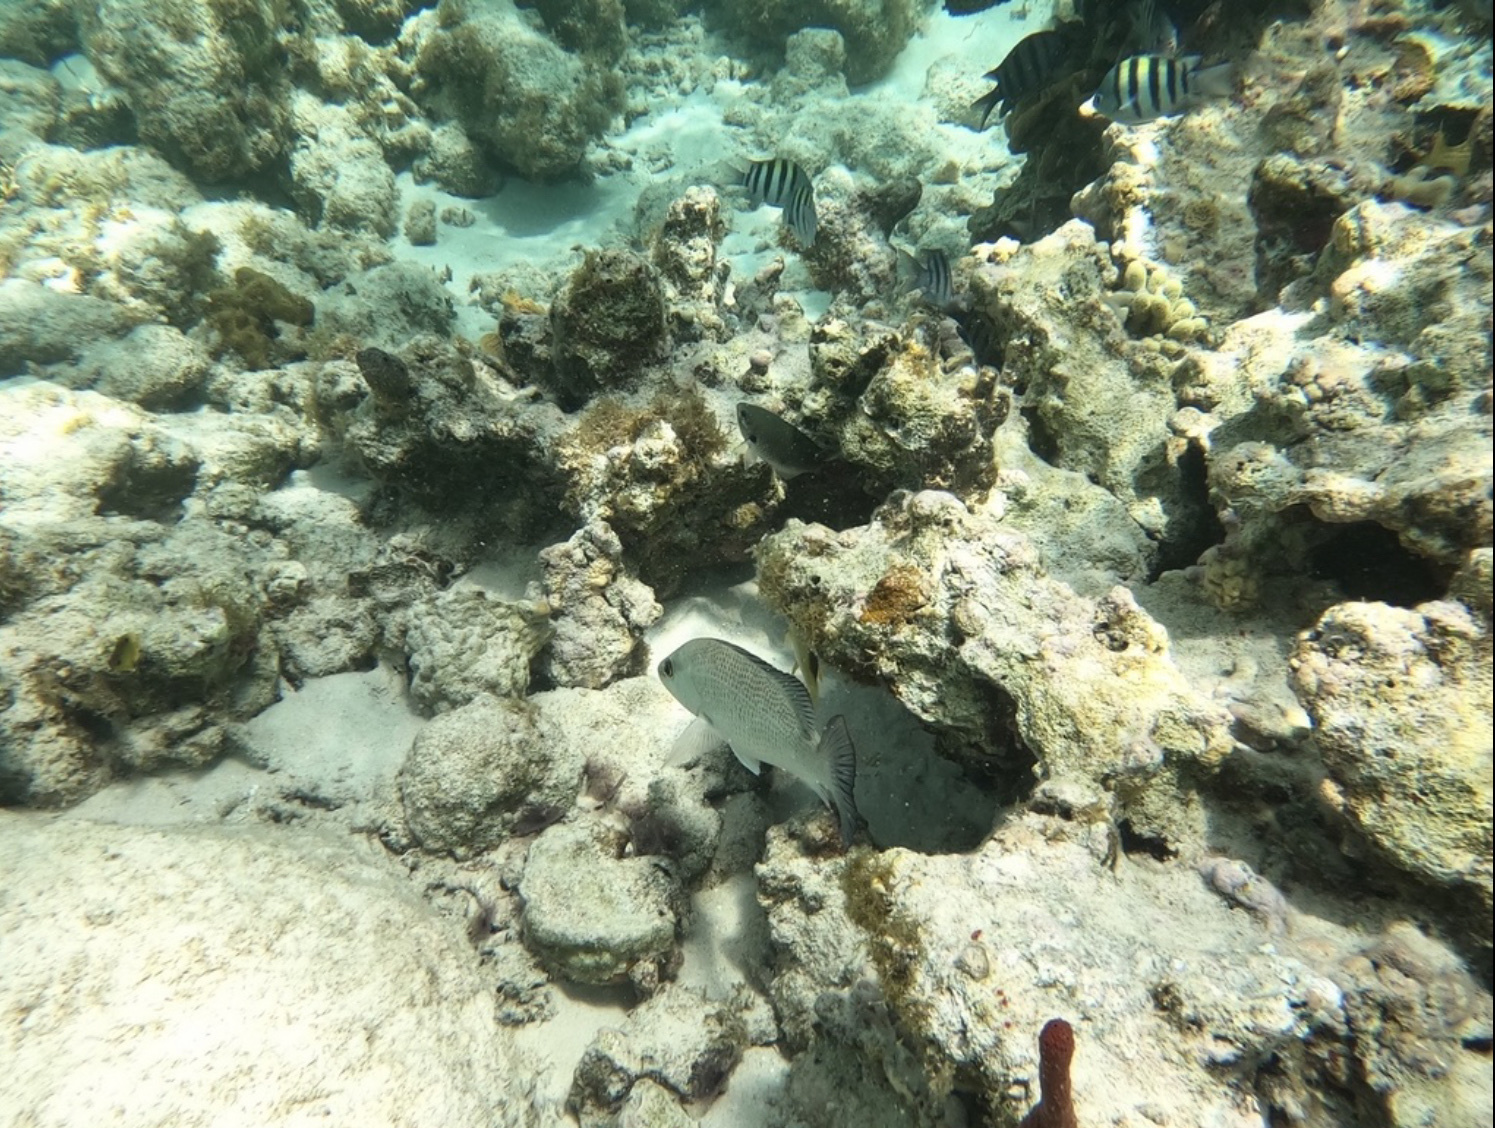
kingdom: Animalia
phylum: Chordata
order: Perciformes
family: Pomacentridae
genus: Chromis
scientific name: Chromis multilineata
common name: Brown chromis
